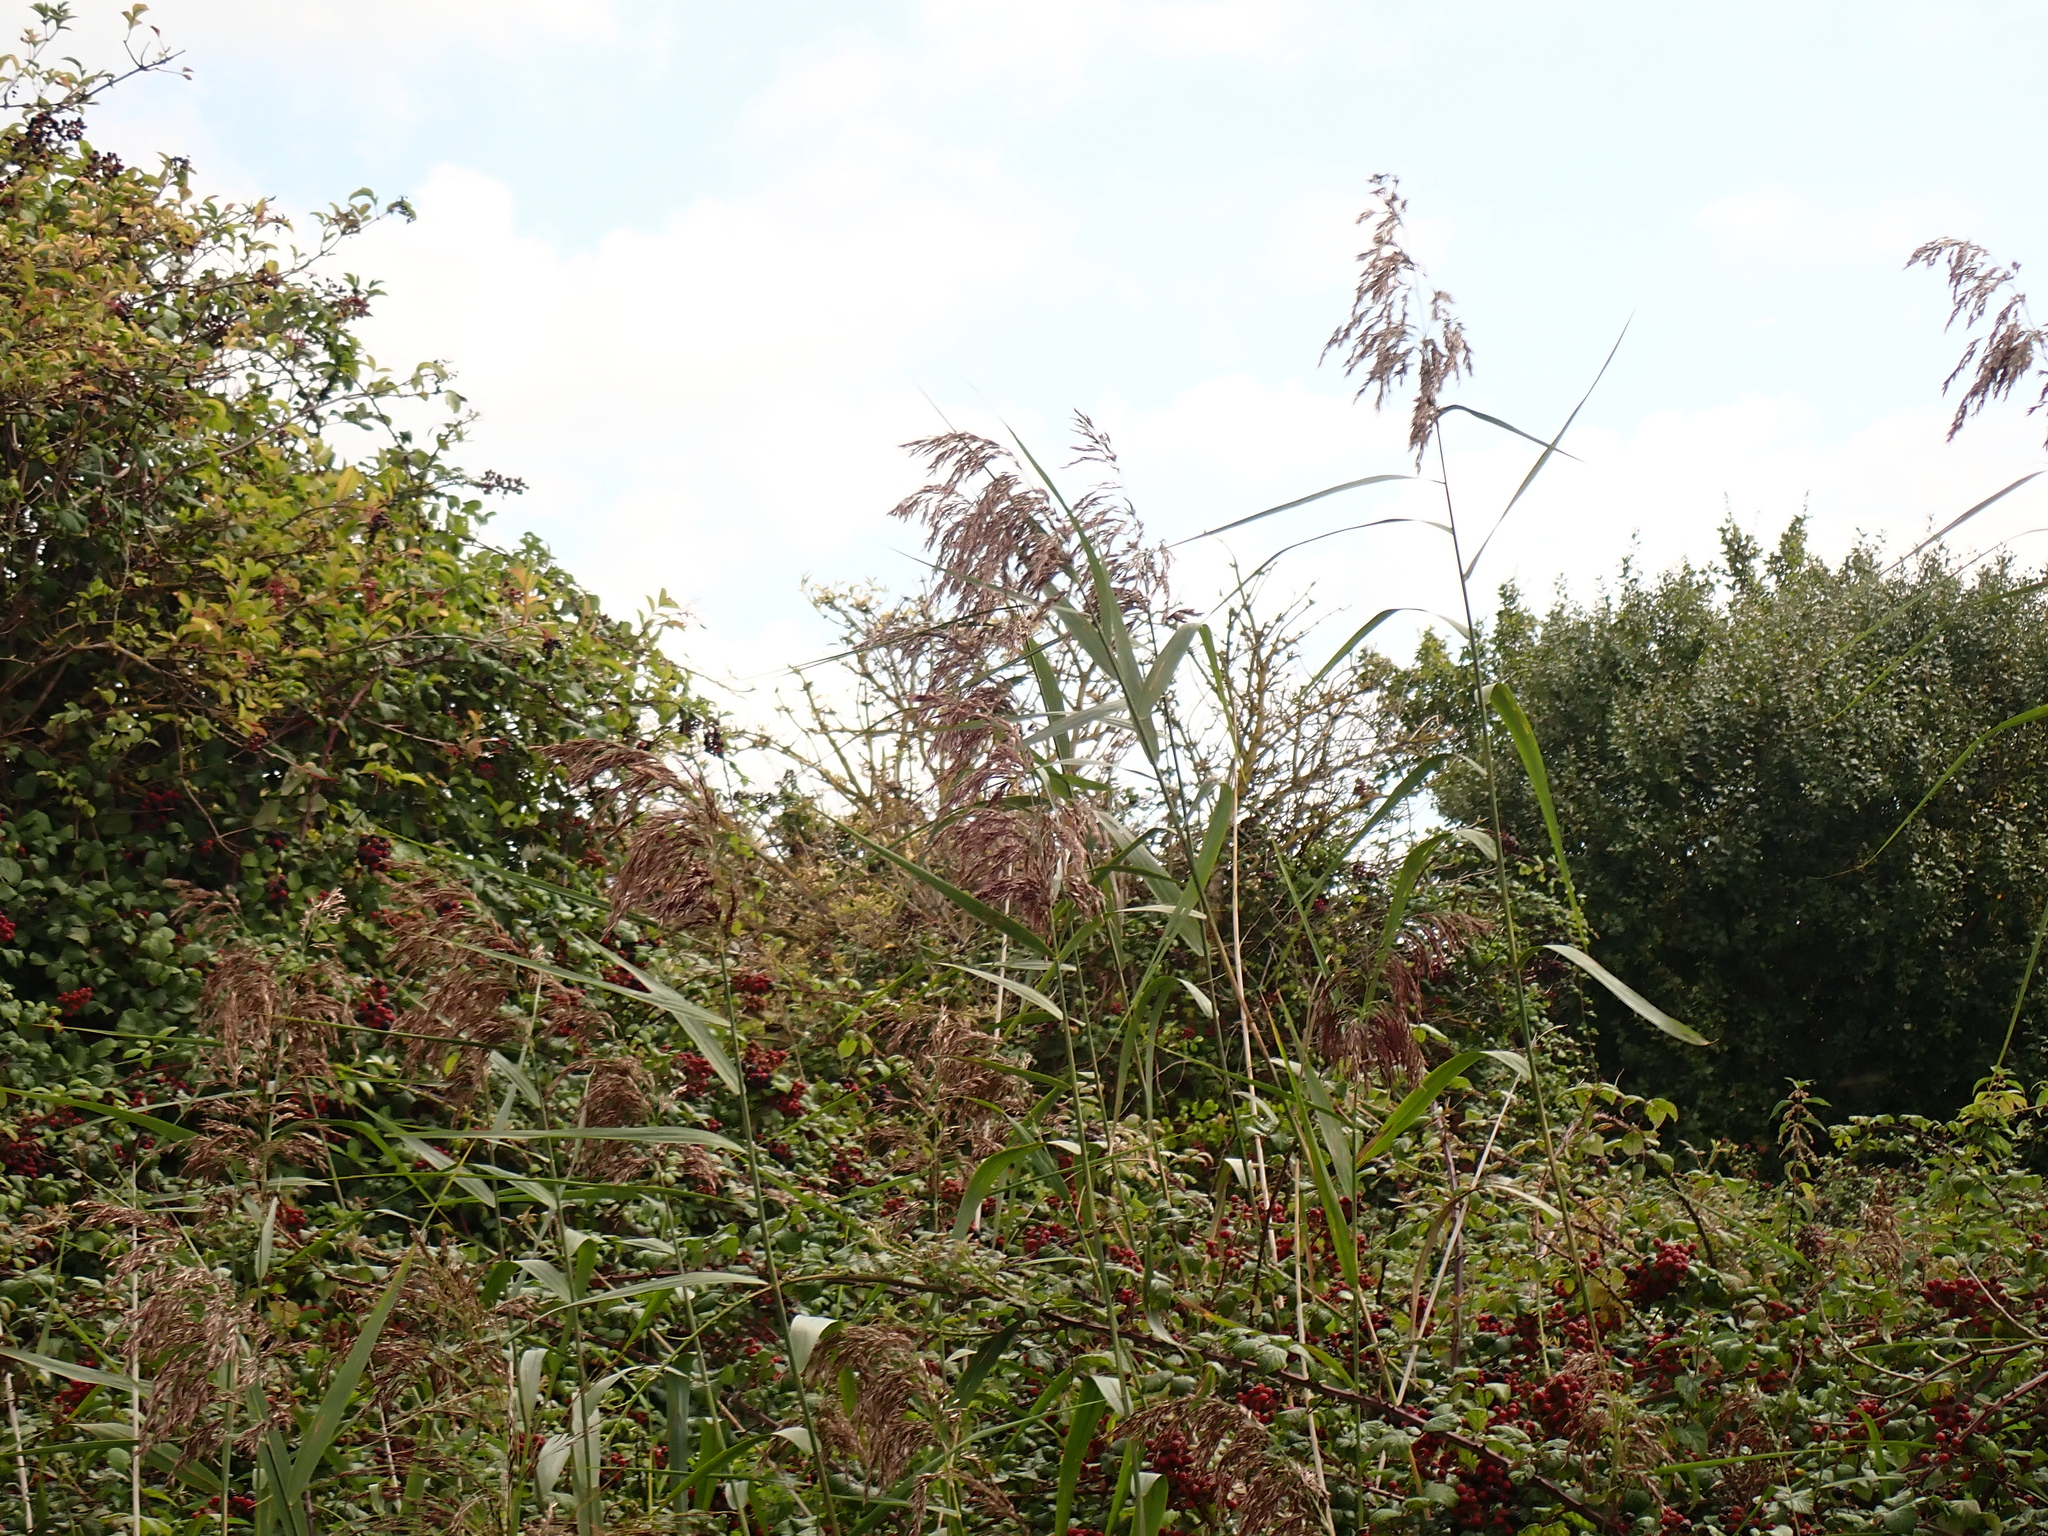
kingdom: Plantae
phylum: Tracheophyta
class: Liliopsida
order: Poales
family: Poaceae
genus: Phragmites
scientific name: Phragmites australis
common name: Common reed
